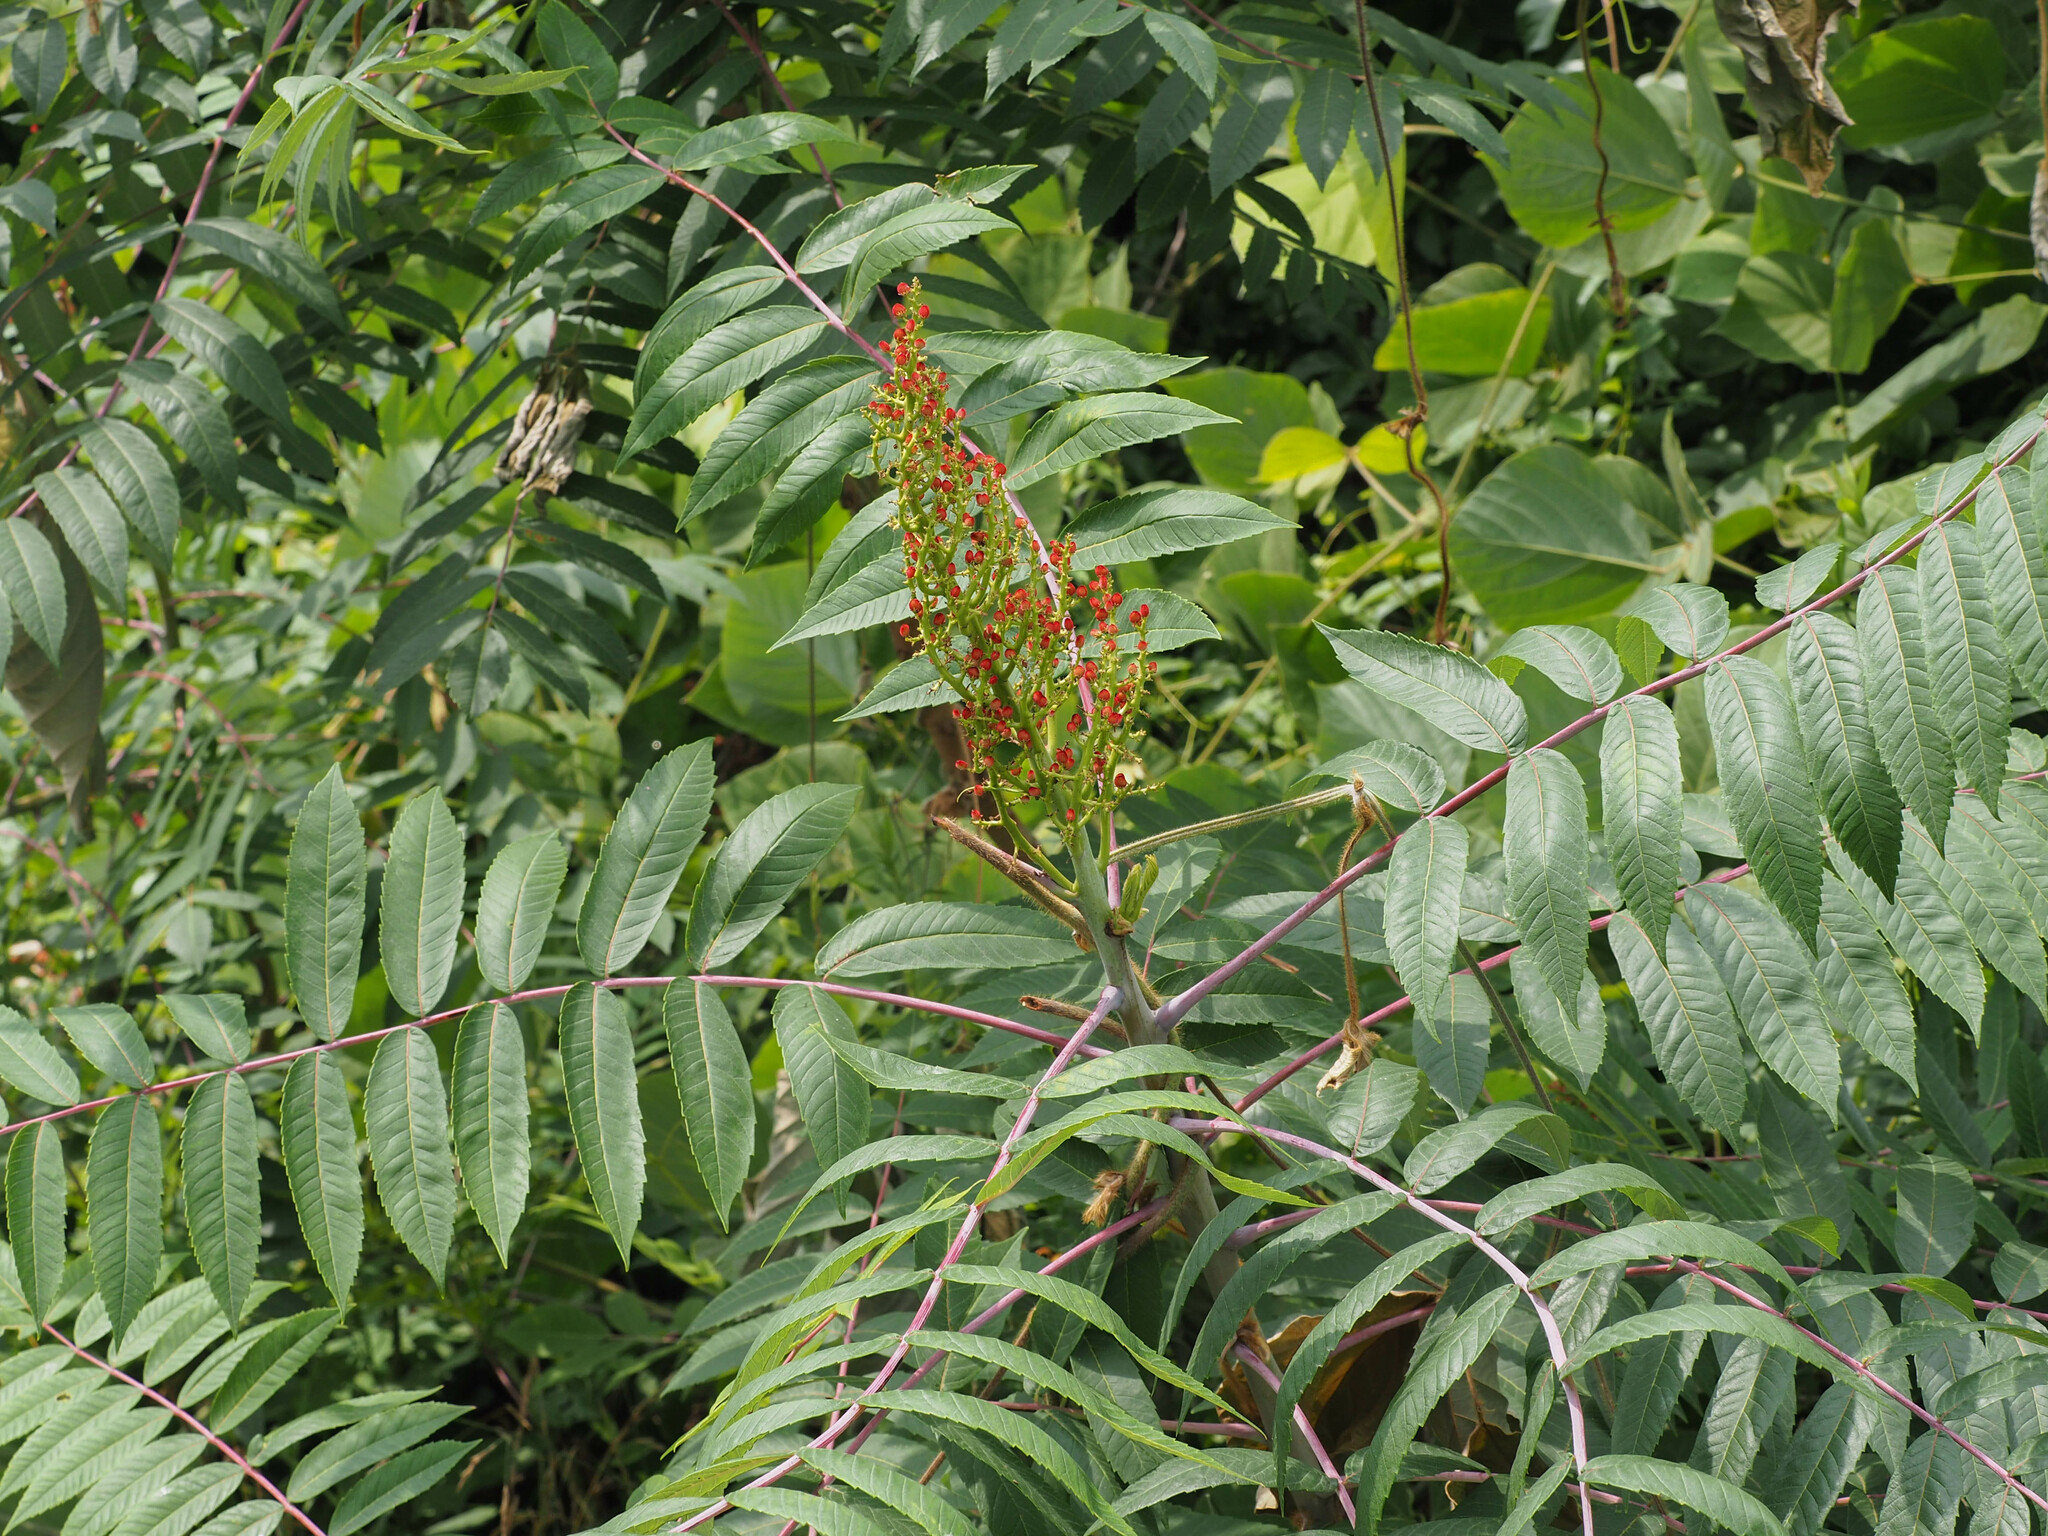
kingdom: Plantae
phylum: Tracheophyta
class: Magnoliopsida
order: Sapindales
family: Anacardiaceae
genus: Rhus
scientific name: Rhus glabra
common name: Scarlet sumac
